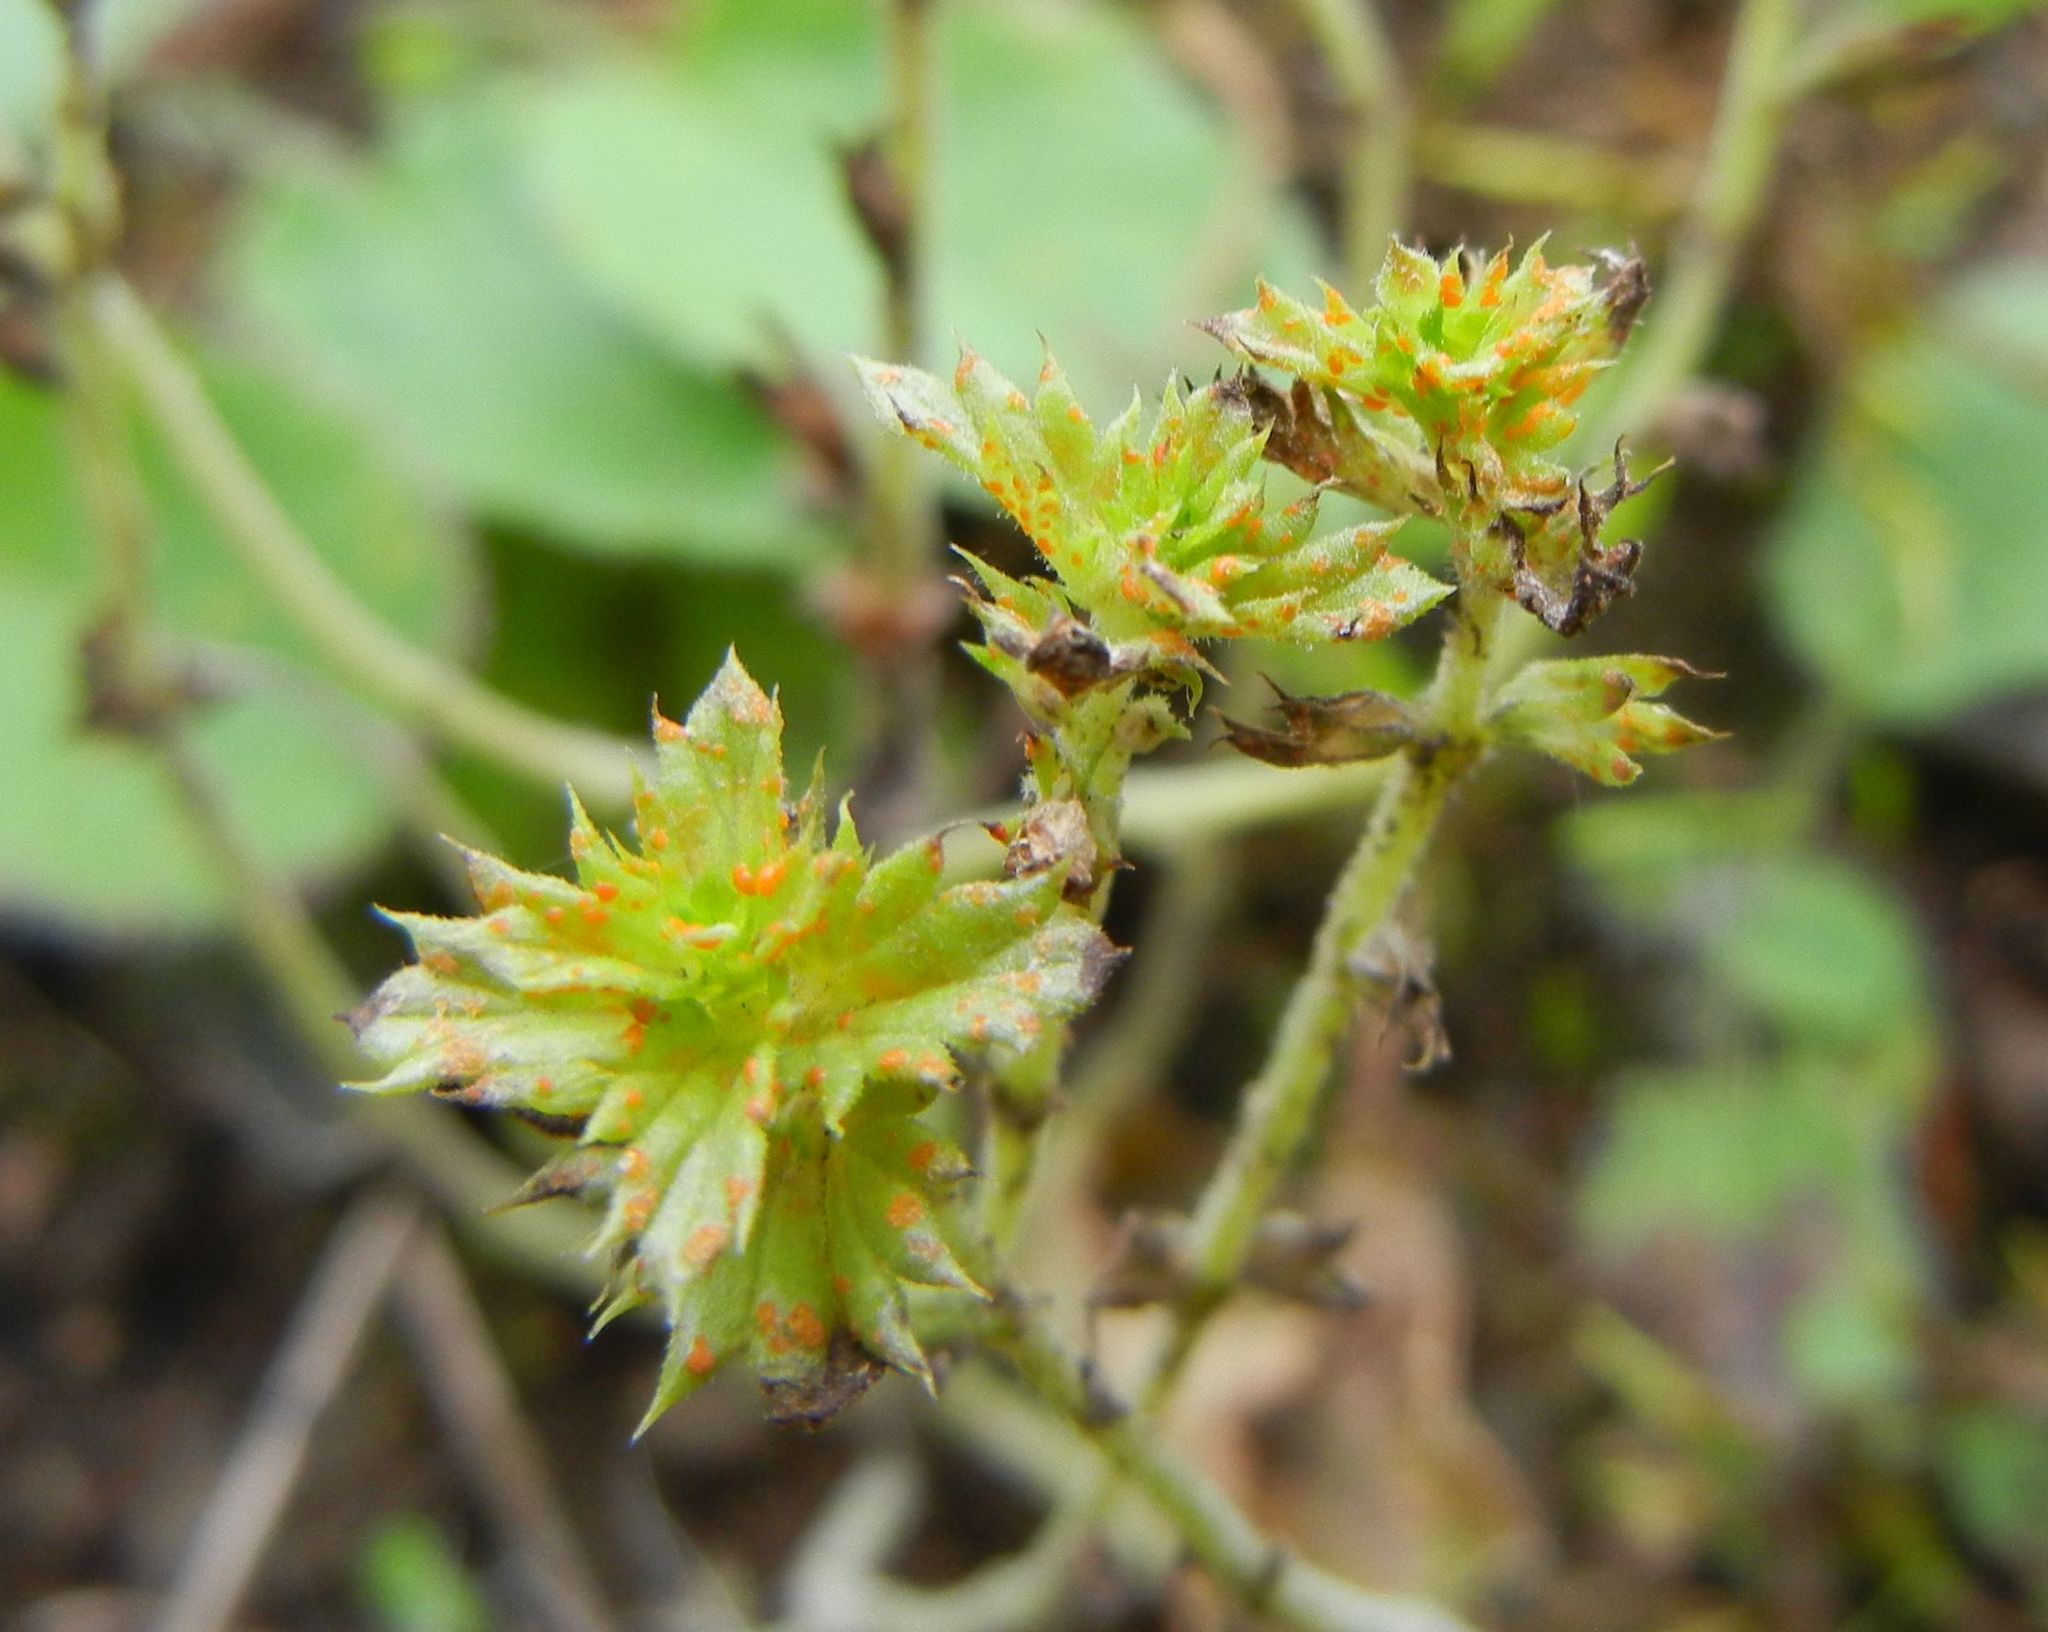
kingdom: Fungi
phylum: Basidiomycota
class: Pucciniomycetes
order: Pucciniales
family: Coleosporiaceae
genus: Coleosporium
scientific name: Coleosporium euphrasiae
